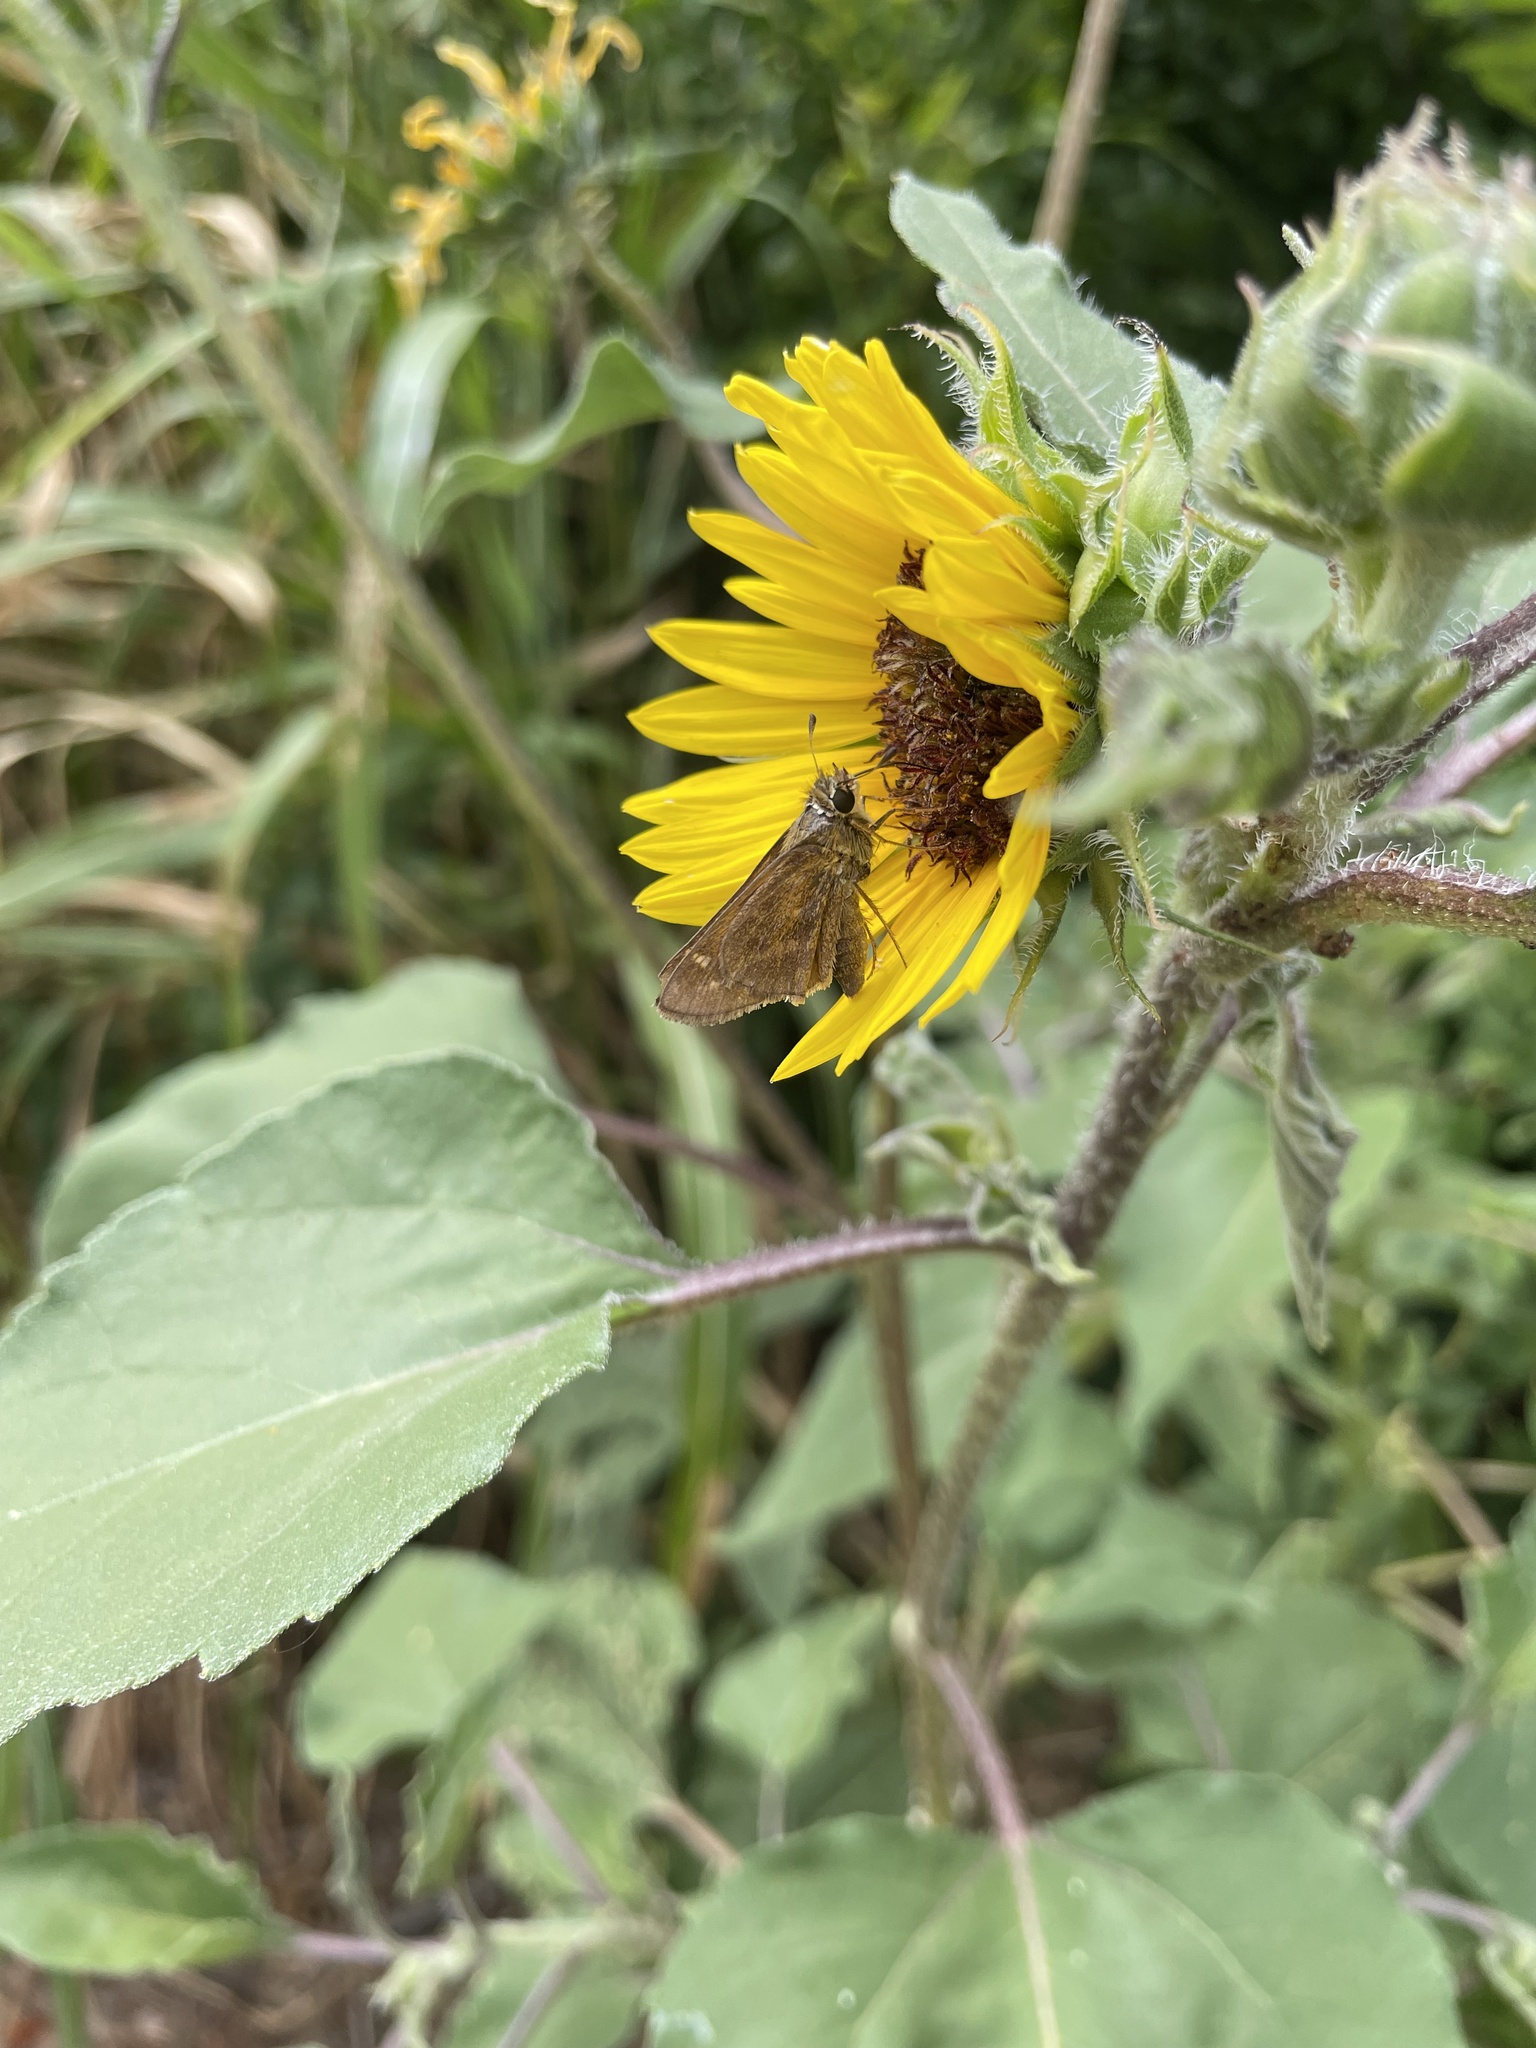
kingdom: Animalia
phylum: Arthropoda
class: Insecta
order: Lepidoptera
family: Hesperiidae
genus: Atalopedes
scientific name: Atalopedes
